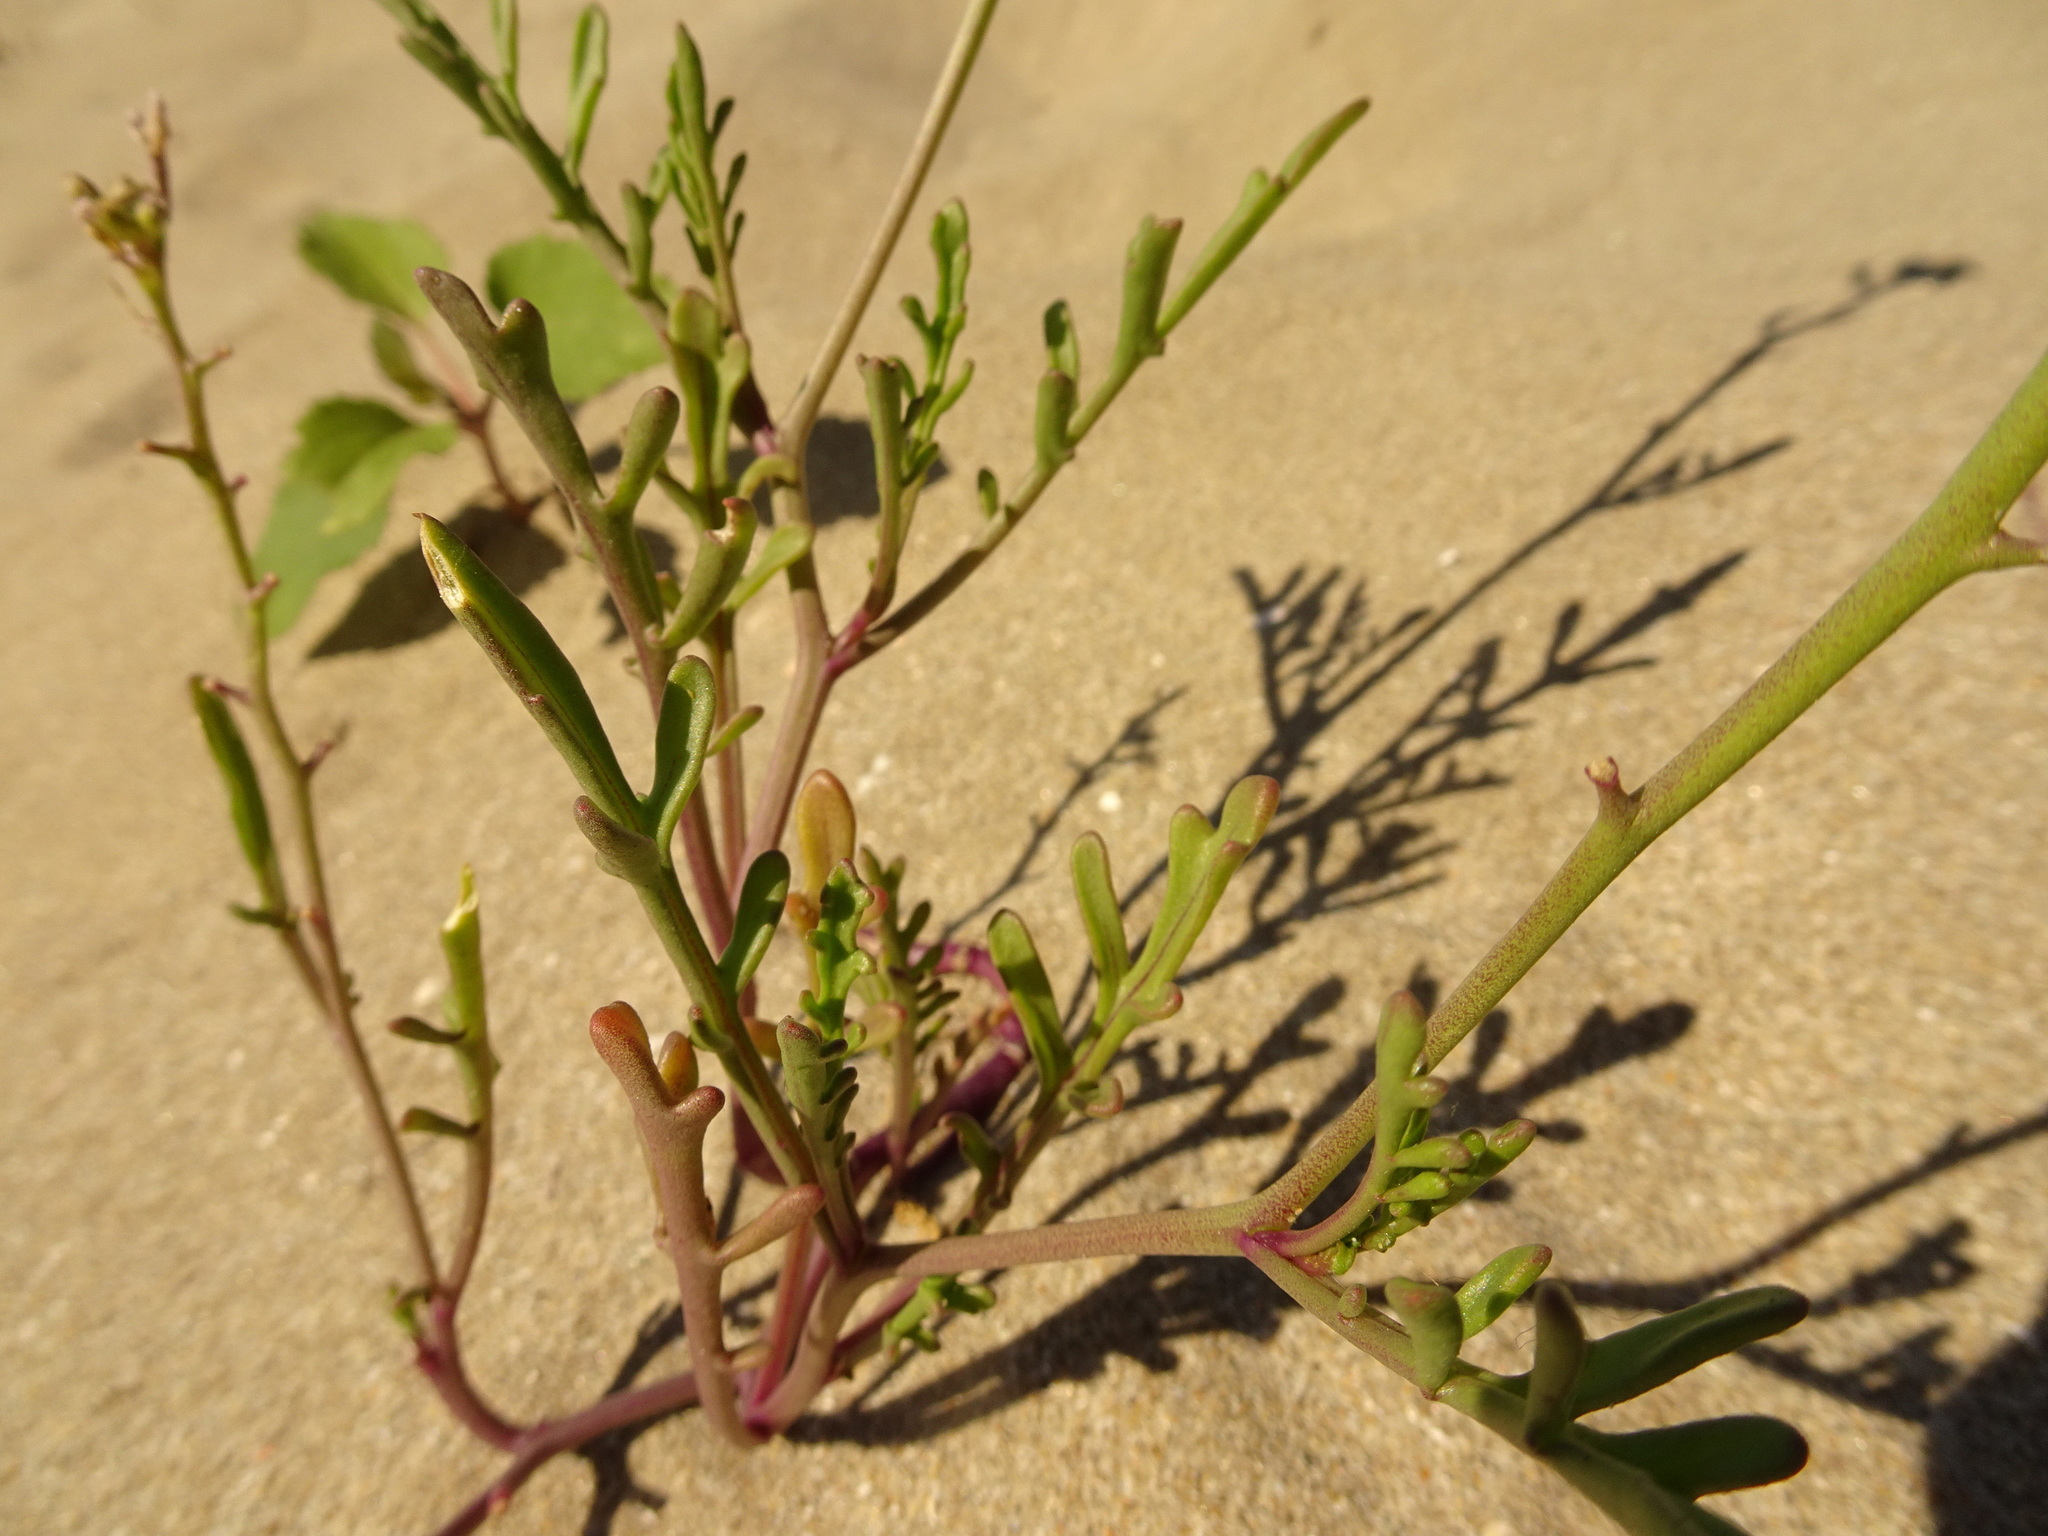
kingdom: Plantae
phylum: Tracheophyta
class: Magnoliopsida
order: Brassicales
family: Brassicaceae
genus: Cakile
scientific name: Cakile maritima
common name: Sea rocket
